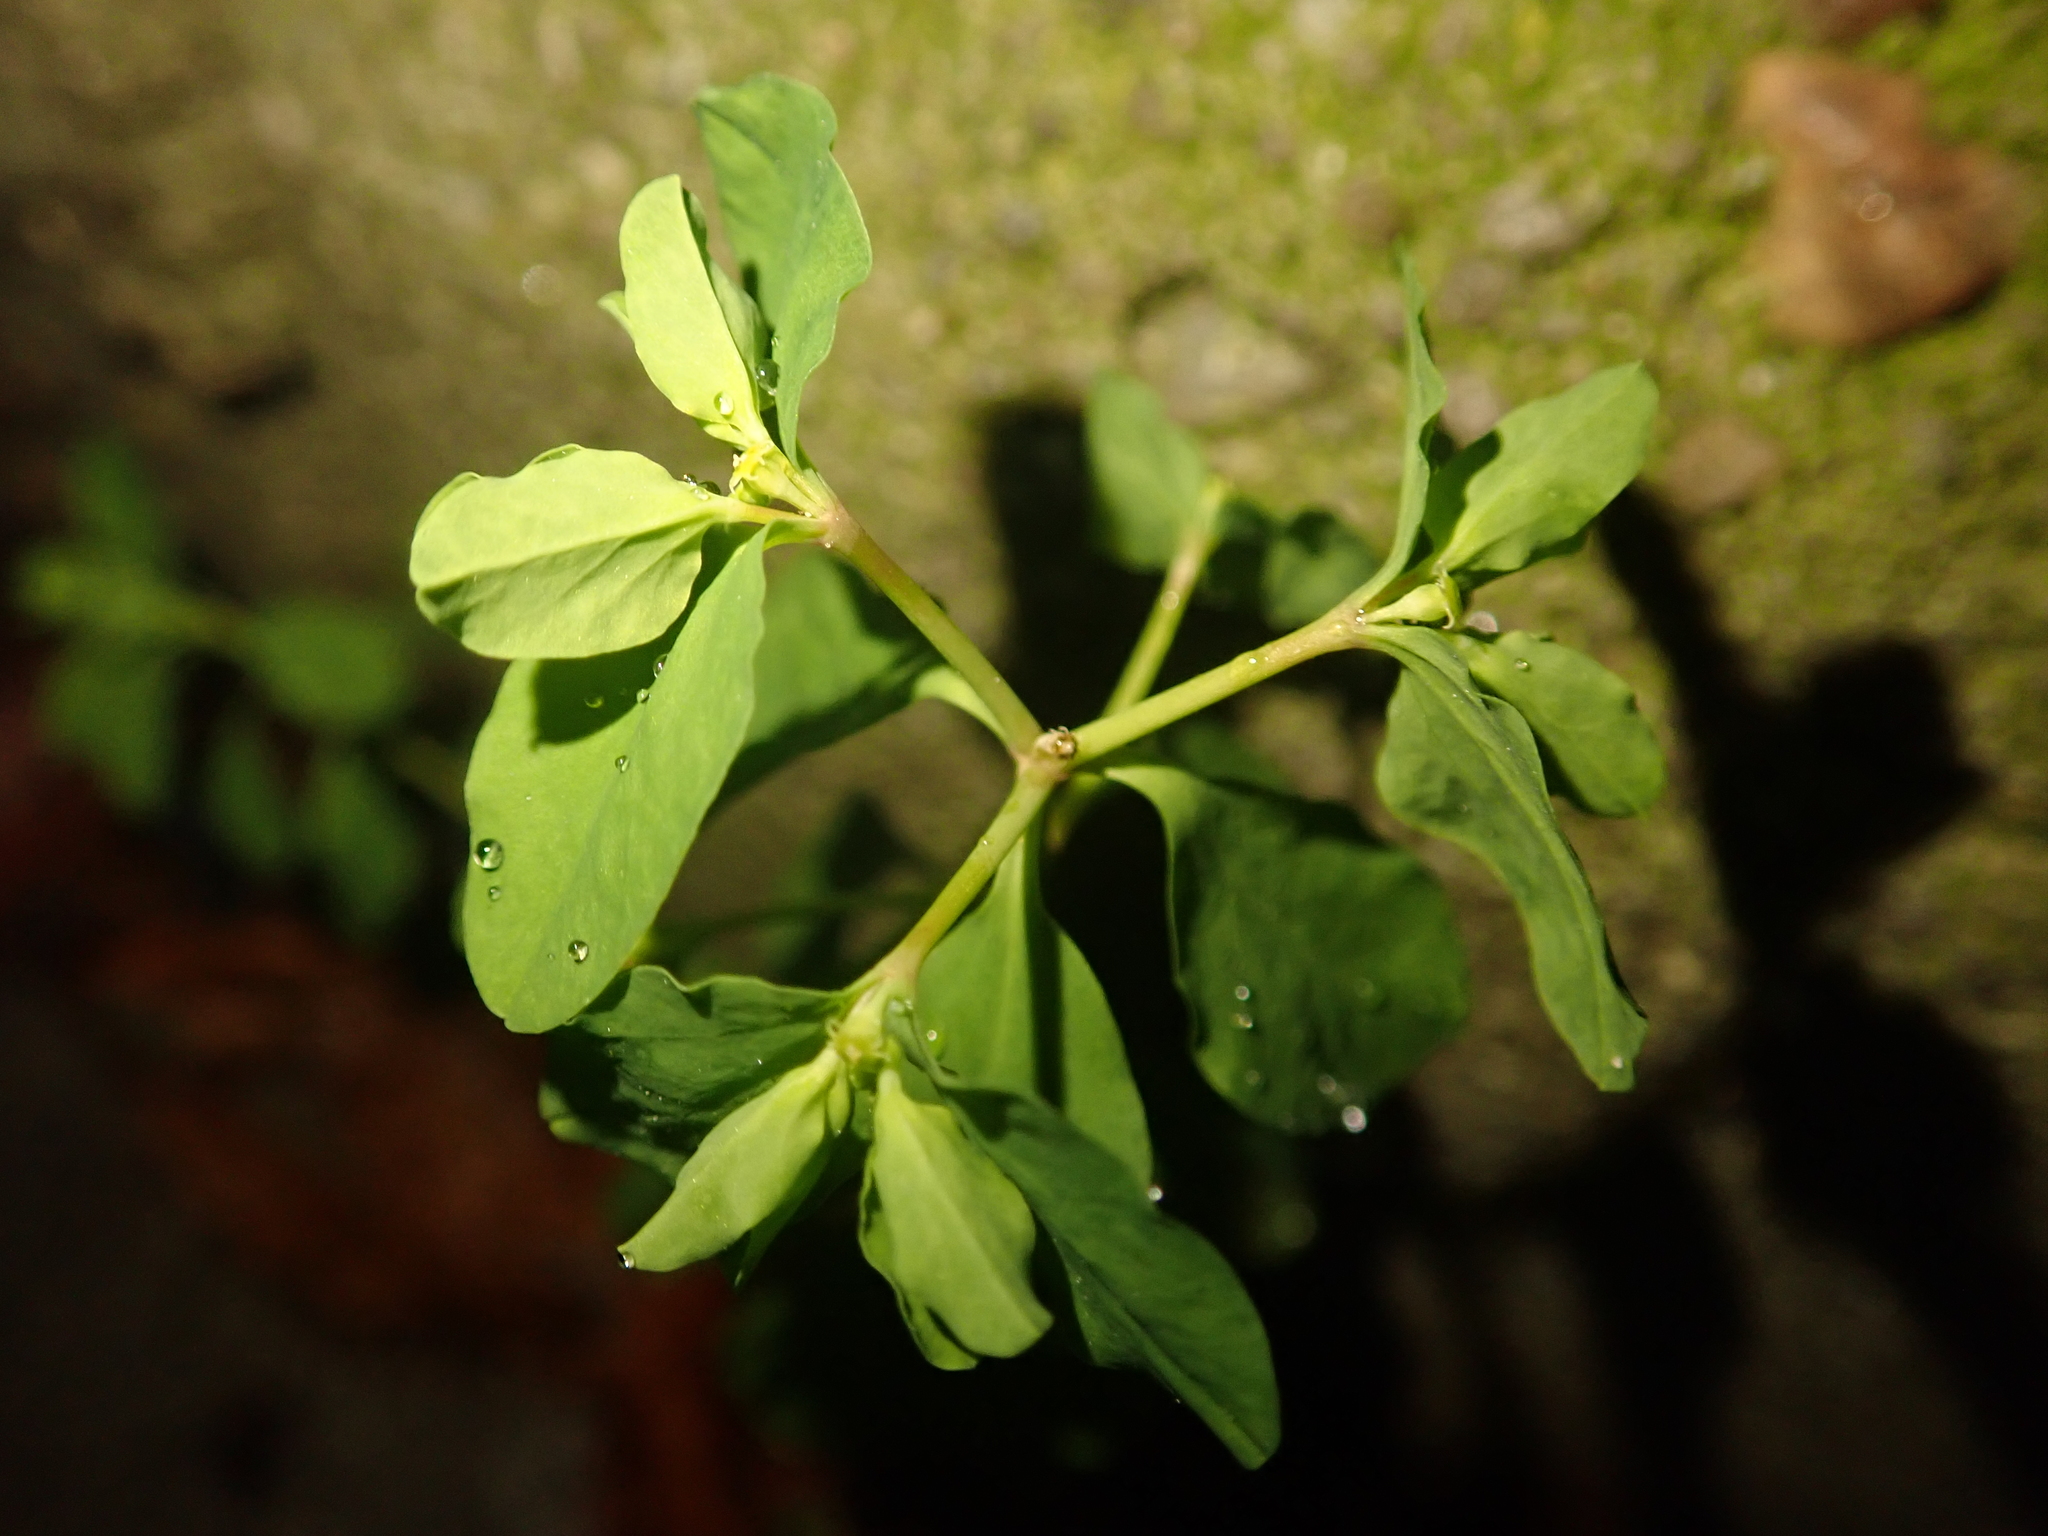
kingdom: Plantae
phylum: Tracheophyta
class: Magnoliopsida
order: Malpighiales
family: Euphorbiaceae
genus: Euphorbia
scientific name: Euphorbia peplus
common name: Petty spurge
